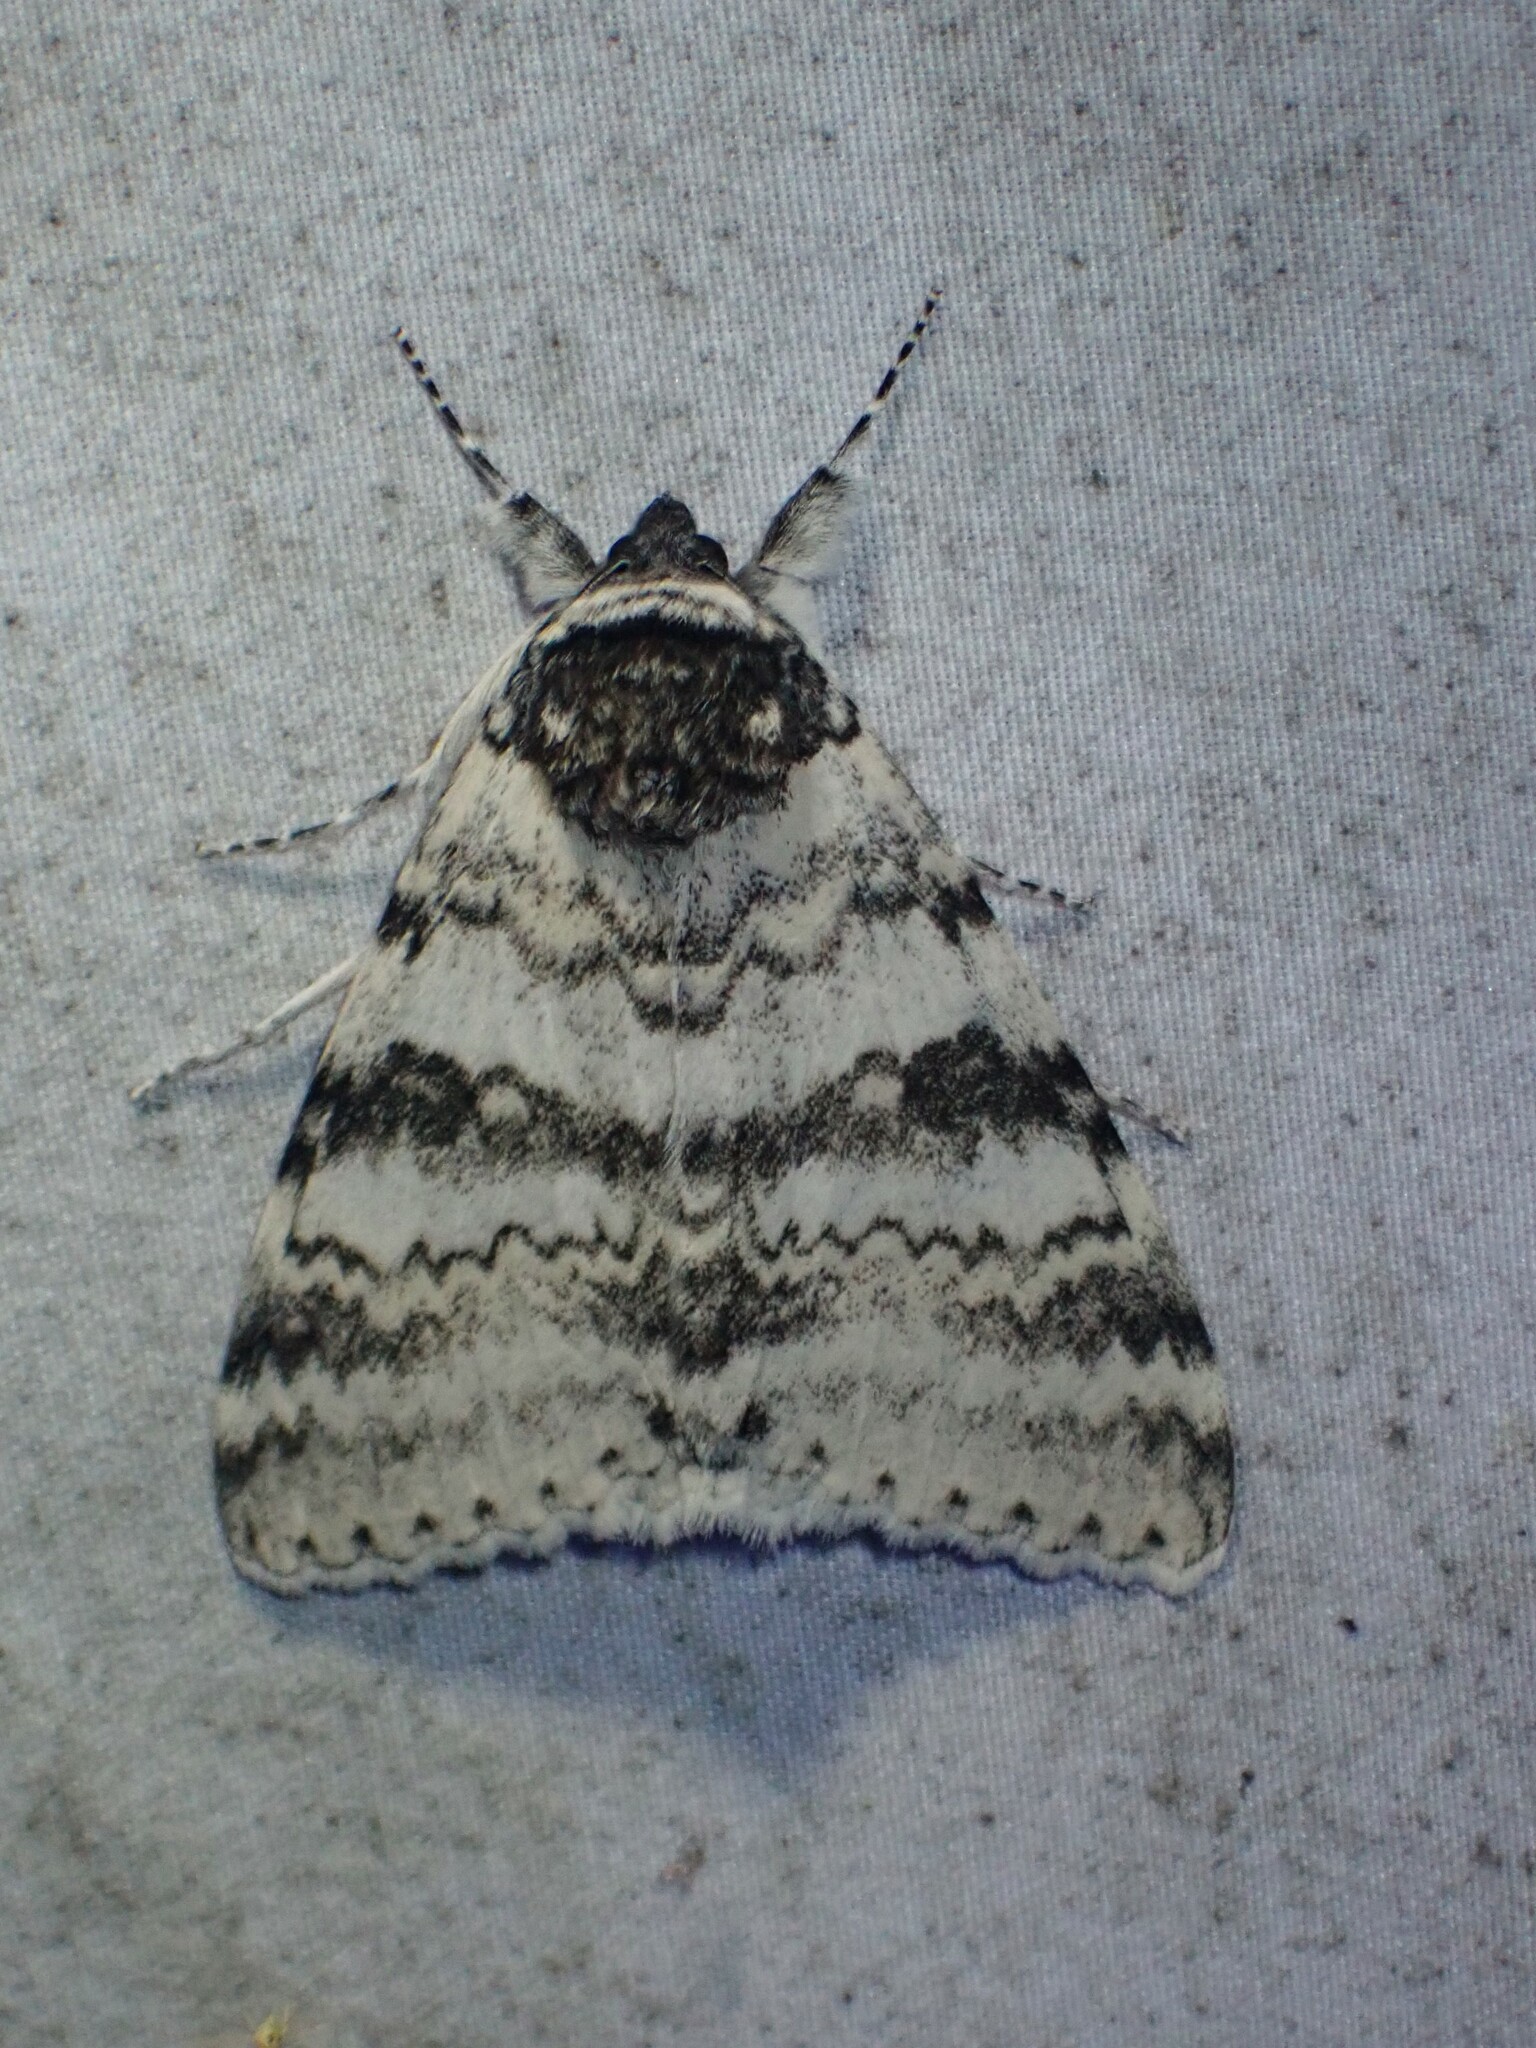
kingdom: Animalia
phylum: Arthropoda
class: Insecta
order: Lepidoptera
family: Erebidae
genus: Catocala
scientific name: Catocala relicta
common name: White underwing
